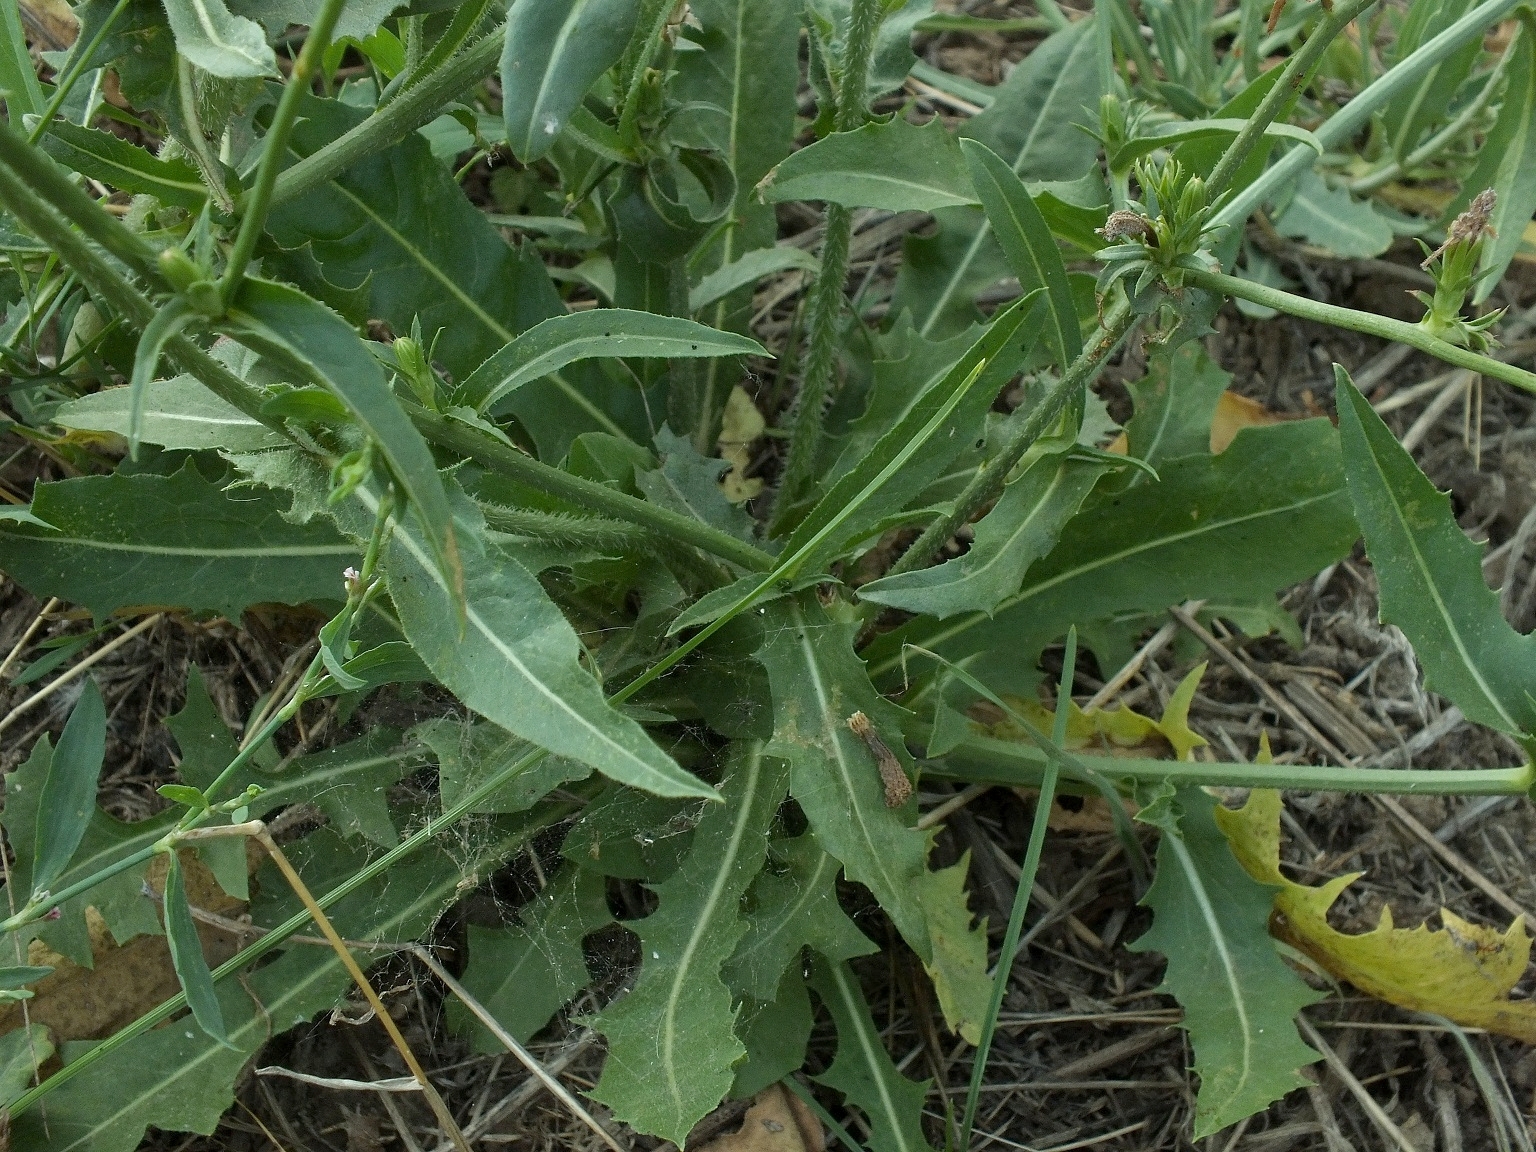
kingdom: Plantae
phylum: Tracheophyta
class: Magnoliopsida
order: Asterales
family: Asteraceae
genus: Cichorium
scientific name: Cichorium intybus
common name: Chicory
